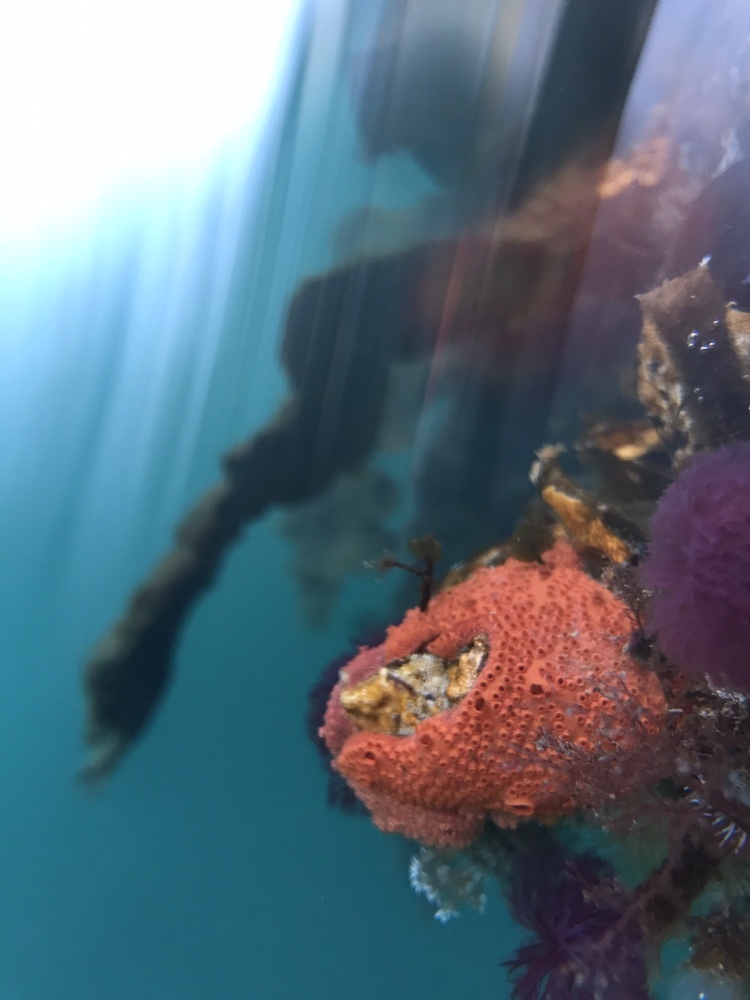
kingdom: Animalia
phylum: Chordata
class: Ascidiacea
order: Stolidobranchia
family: Styelidae
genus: Botrylloides
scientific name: Botrylloides violaceus
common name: Colonial sea squirt
